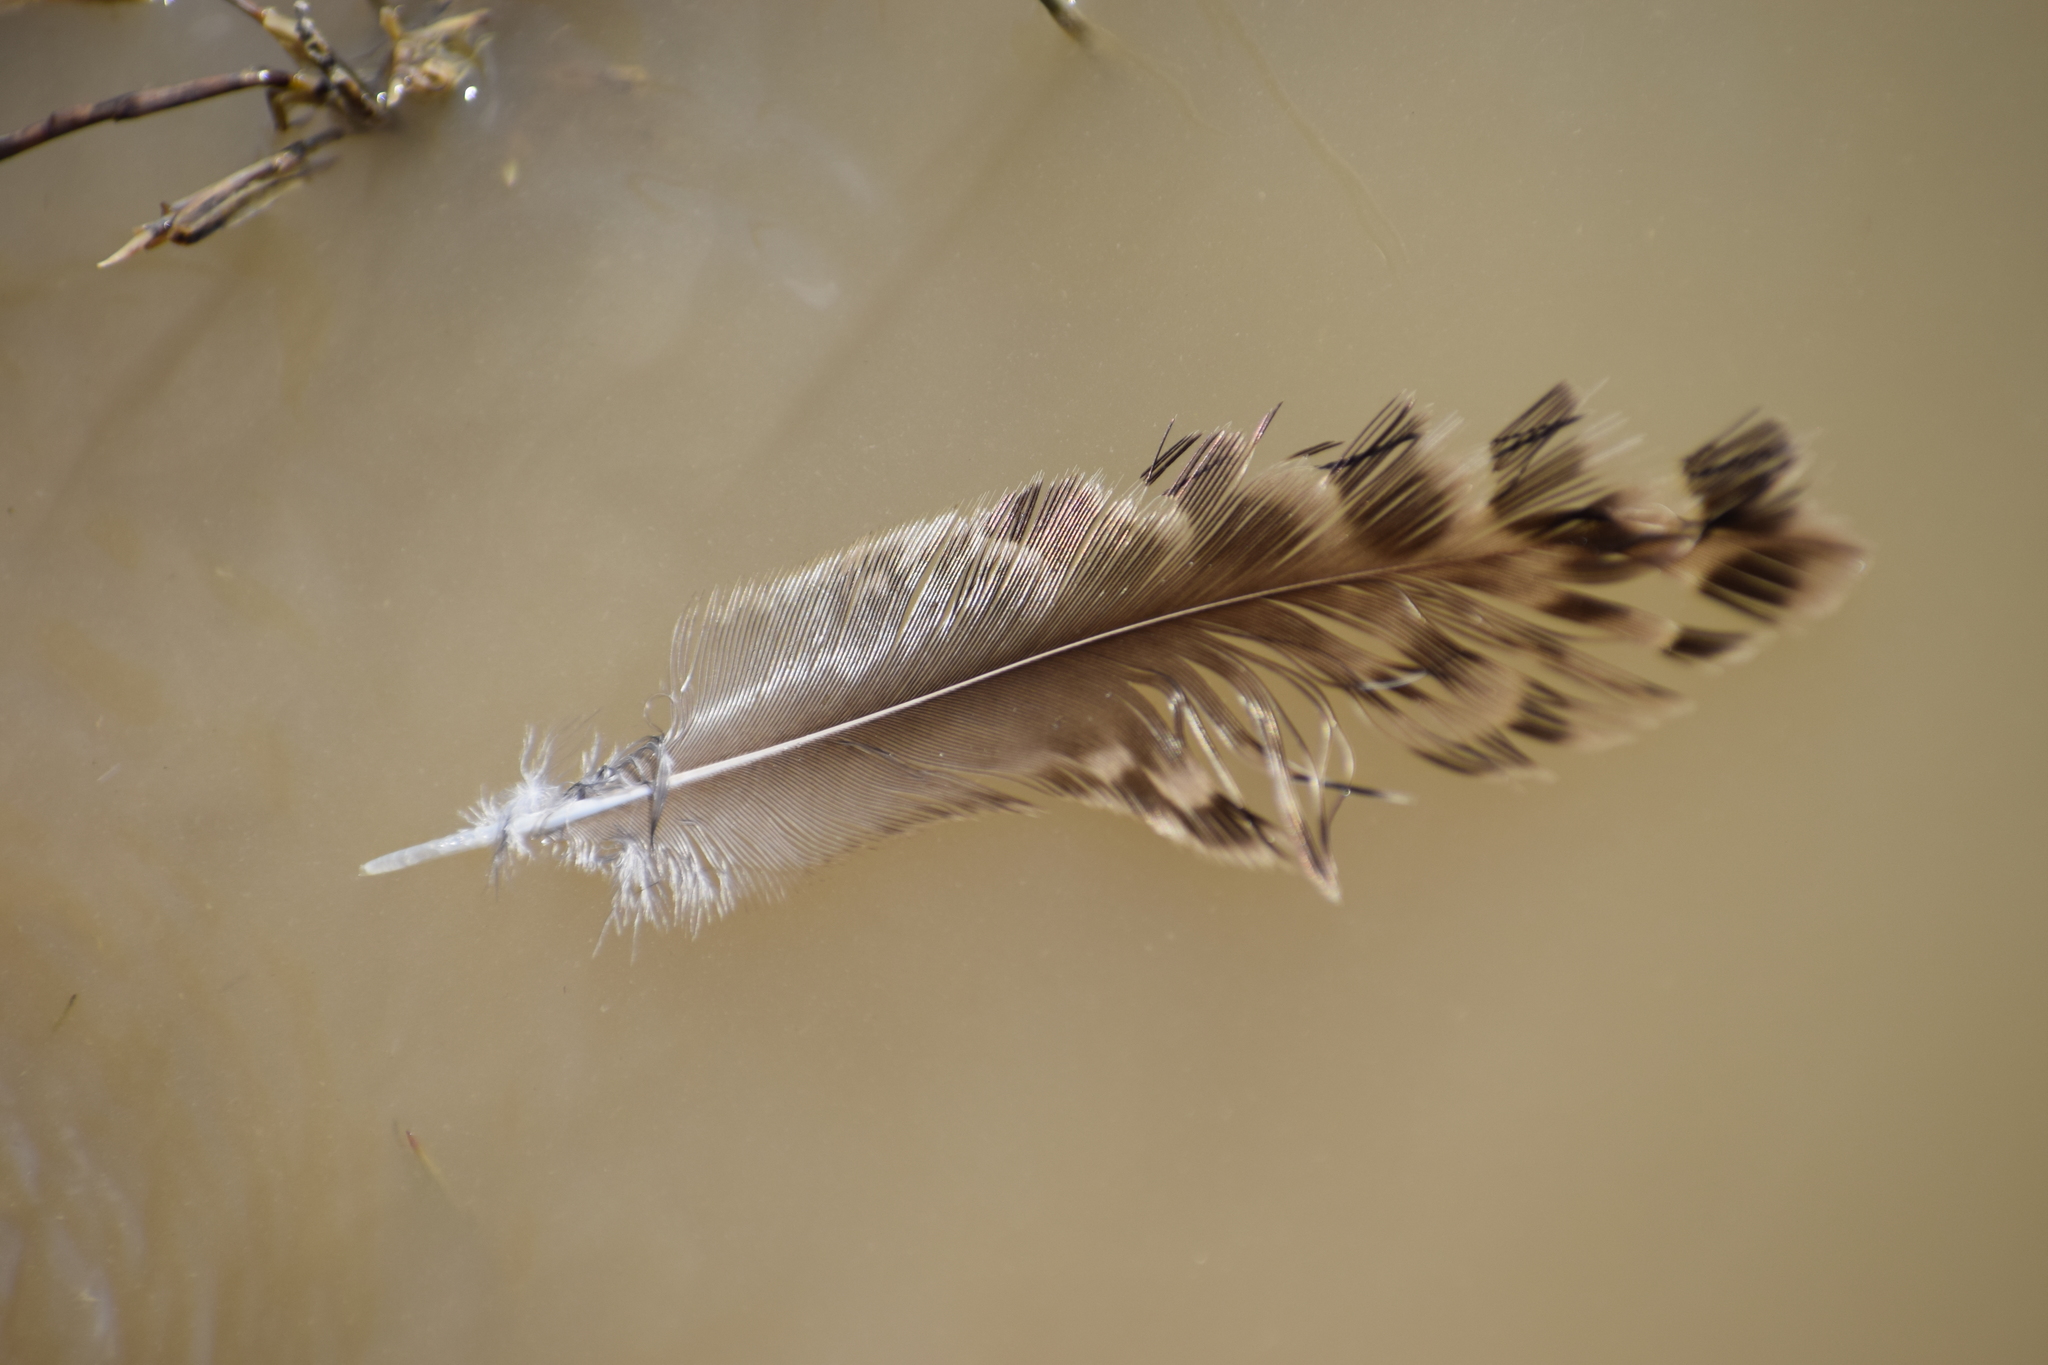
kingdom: Animalia
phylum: Chordata
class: Aves
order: Charadriiformes
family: Scolopacidae
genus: Calidris
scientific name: Calidris pugnax
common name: Ruff
